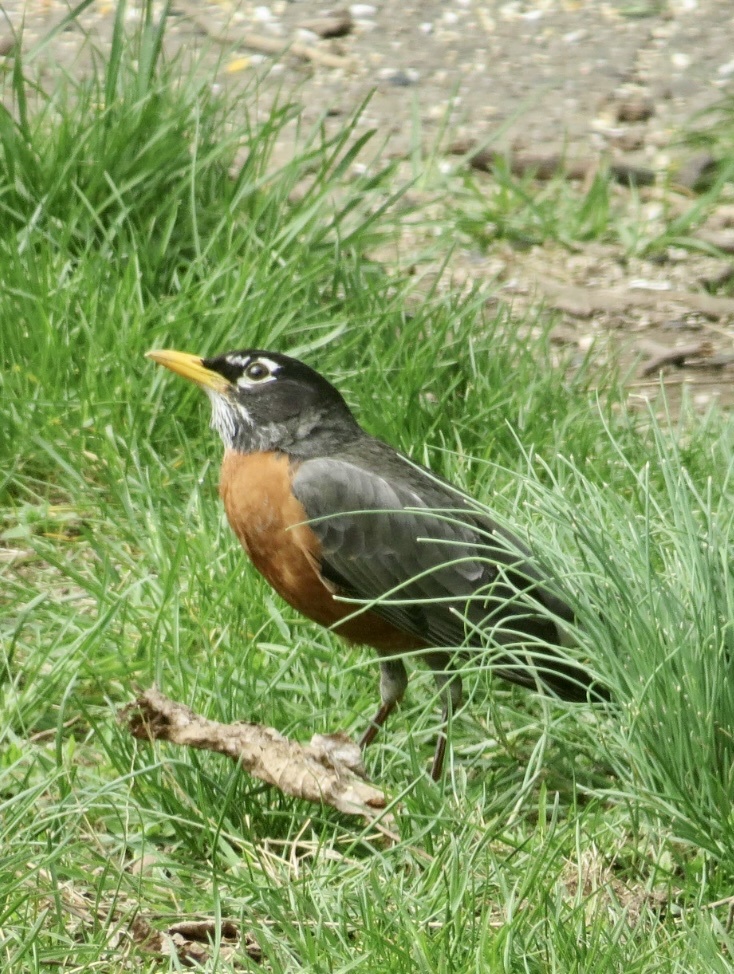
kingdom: Animalia
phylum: Chordata
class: Aves
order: Passeriformes
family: Turdidae
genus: Turdus
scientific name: Turdus migratorius
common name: American robin
